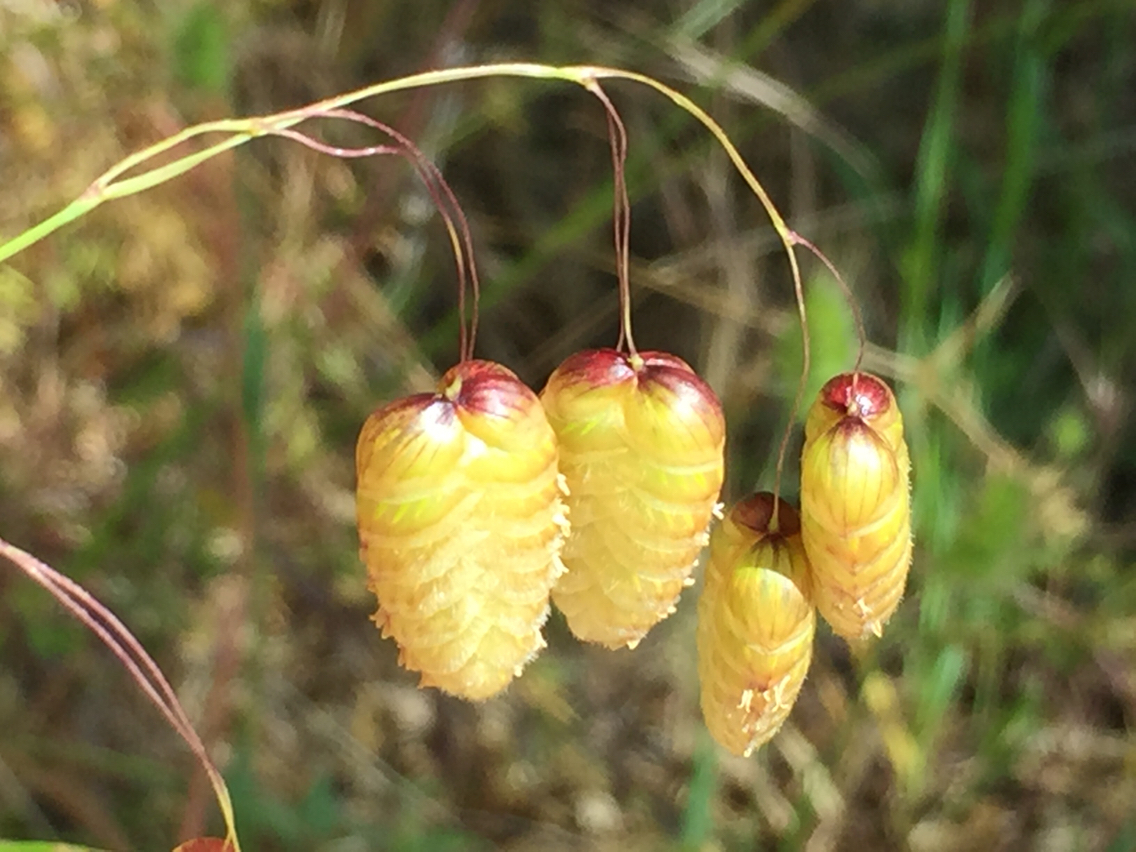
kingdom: Plantae
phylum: Tracheophyta
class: Liliopsida
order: Poales
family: Poaceae
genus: Briza
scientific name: Briza maxima
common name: Big quakinggrass
